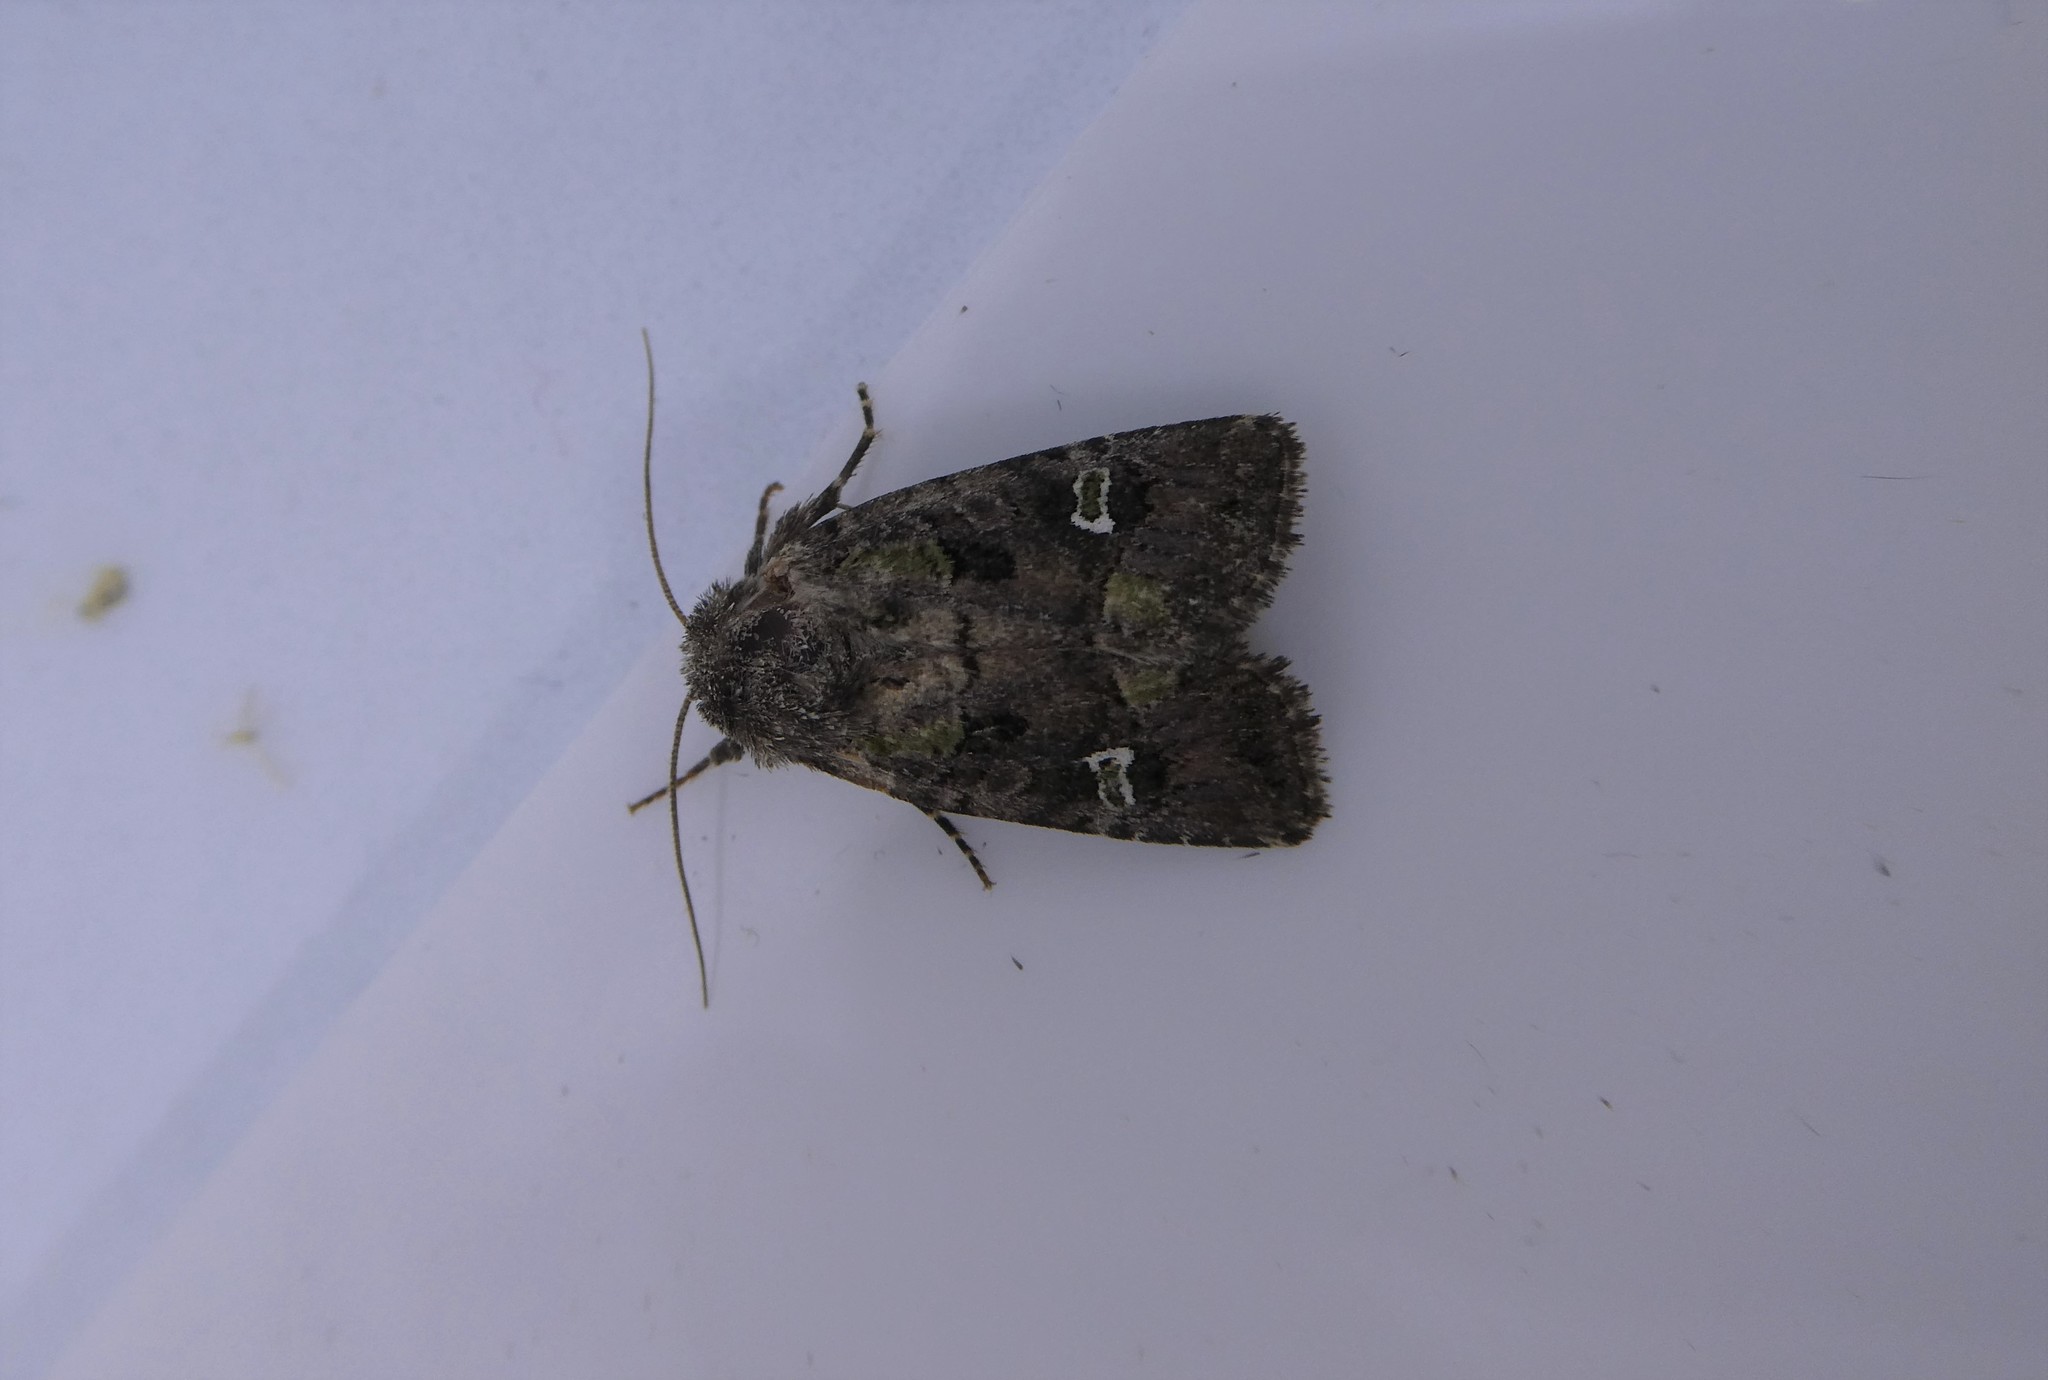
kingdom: Animalia
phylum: Arthropoda
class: Insecta
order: Lepidoptera
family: Noctuidae
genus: Lacinipolia
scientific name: Lacinipolia renigera
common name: Kidney-spotted minor
